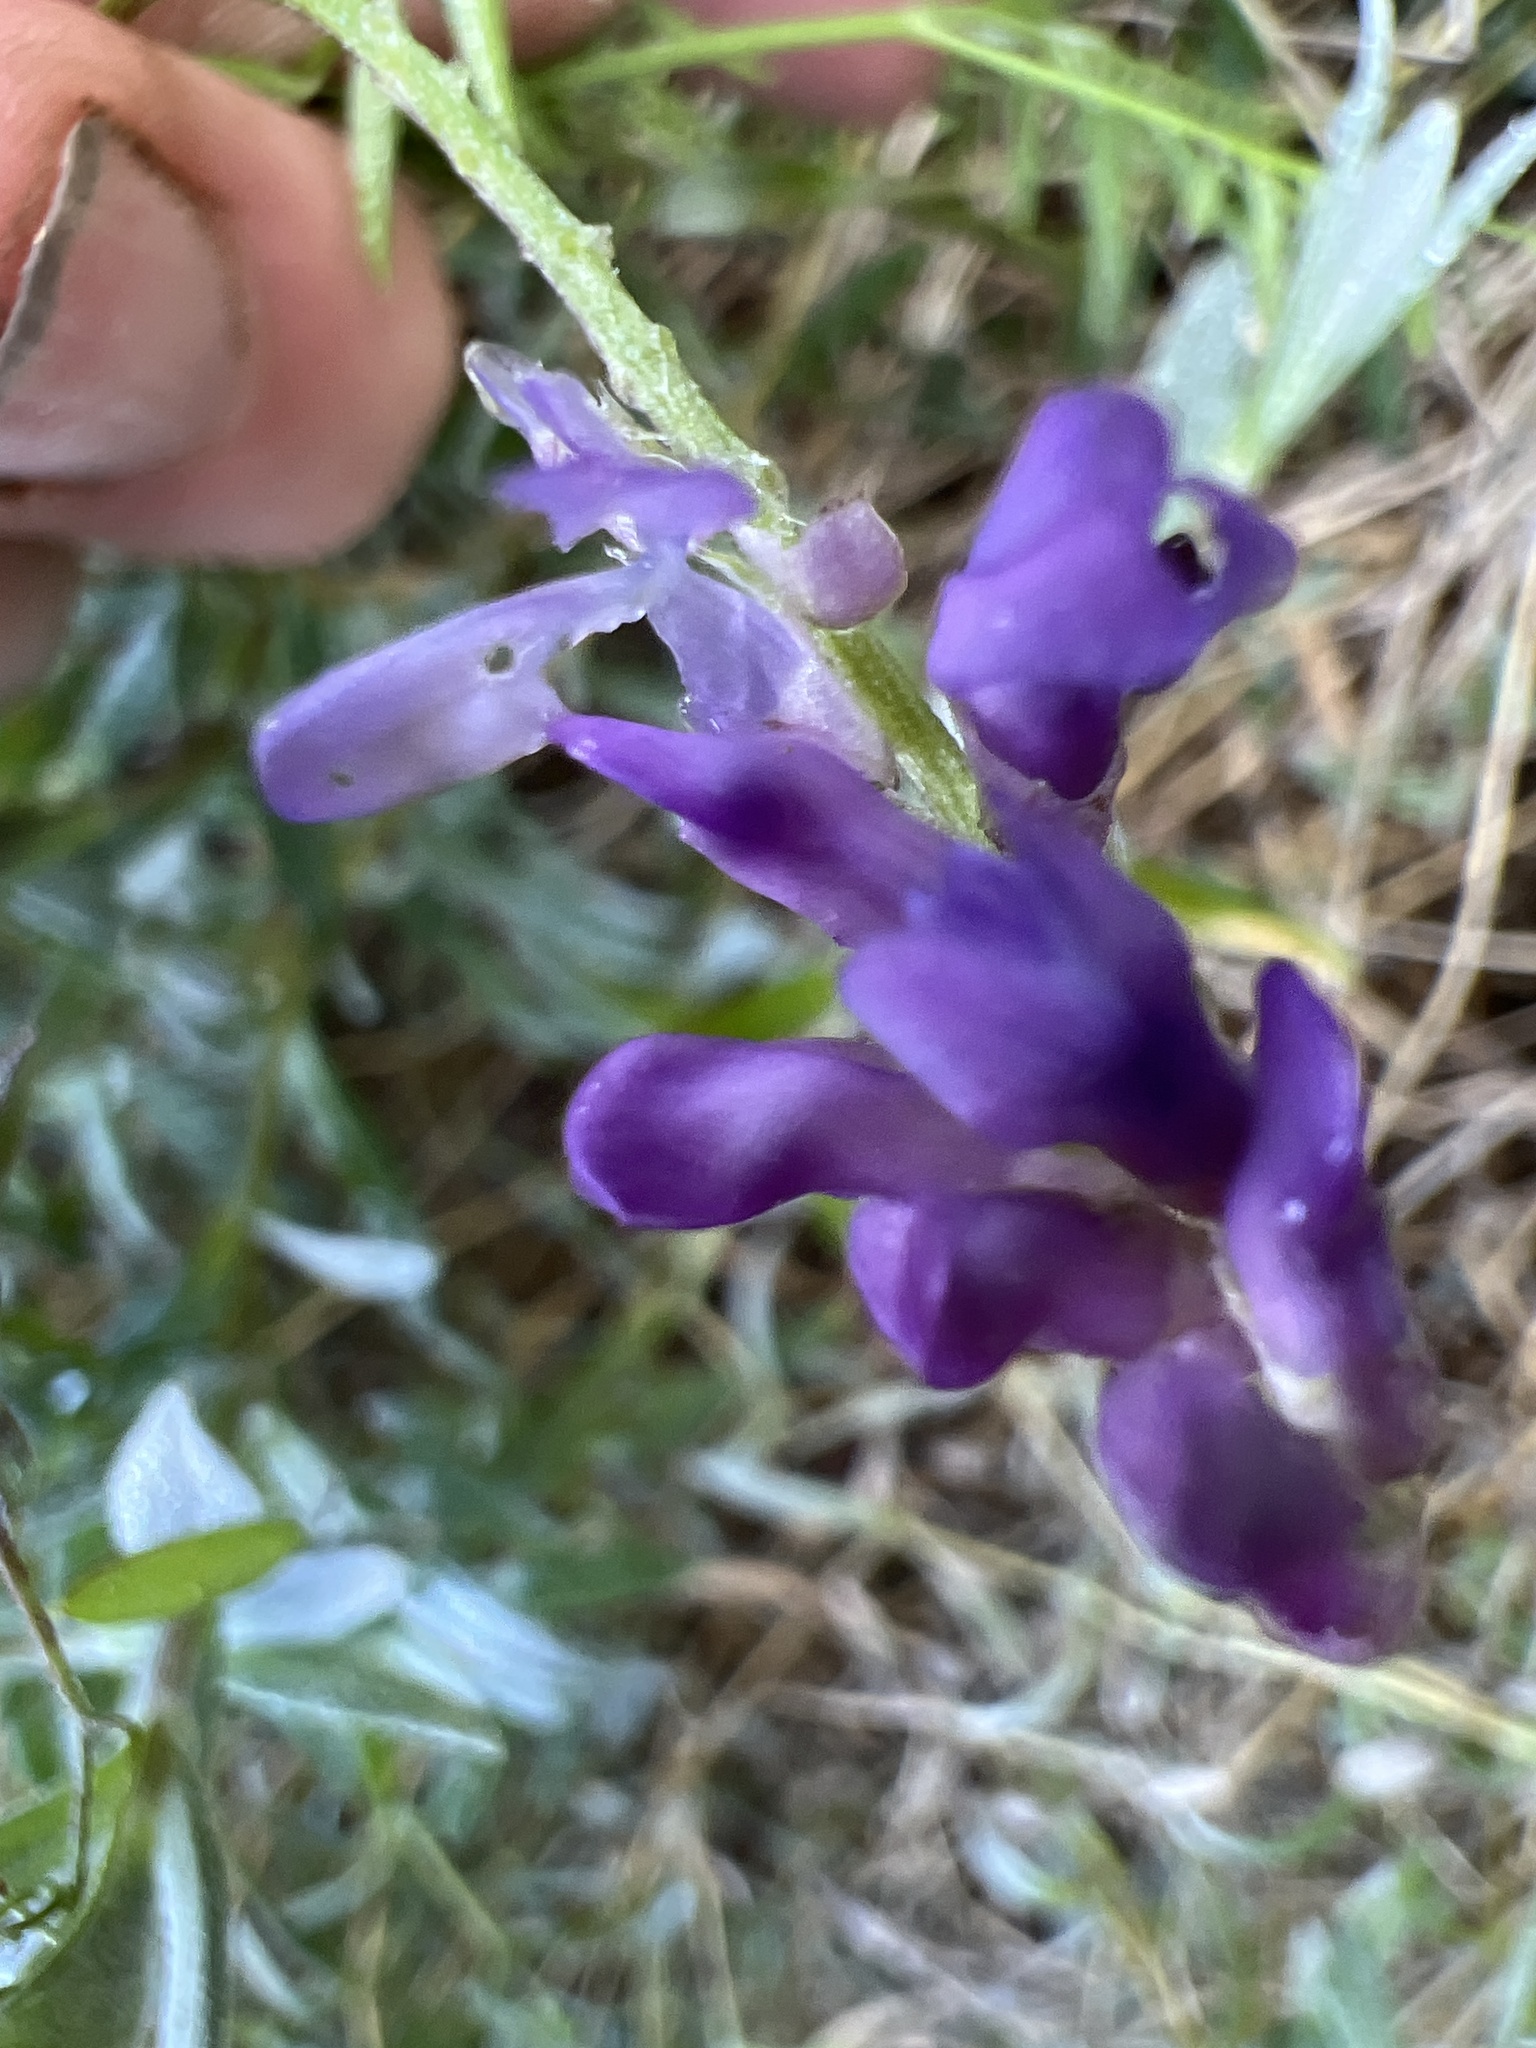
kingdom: Plantae
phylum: Tracheophyta
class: Magnoliopsida
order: Fabales
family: Fabaceae
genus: Vicia
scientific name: Vicia cracca
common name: Bird vetch
